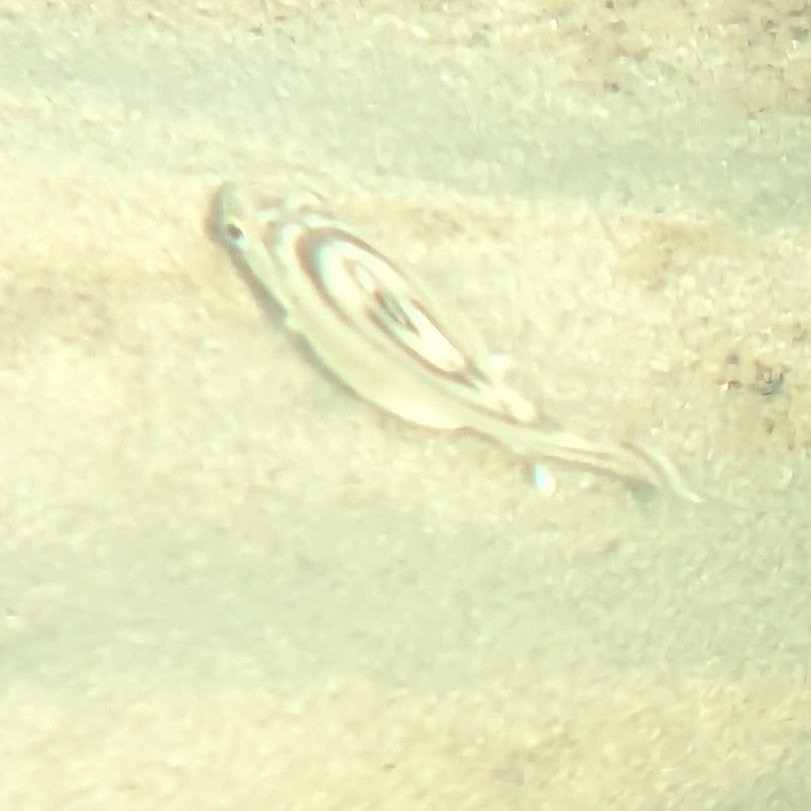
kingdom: Animalia
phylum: Chordata
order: Perciformes
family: Terapontidae
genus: Terapon
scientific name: Terapon jarbua
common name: Jarbua terapon
